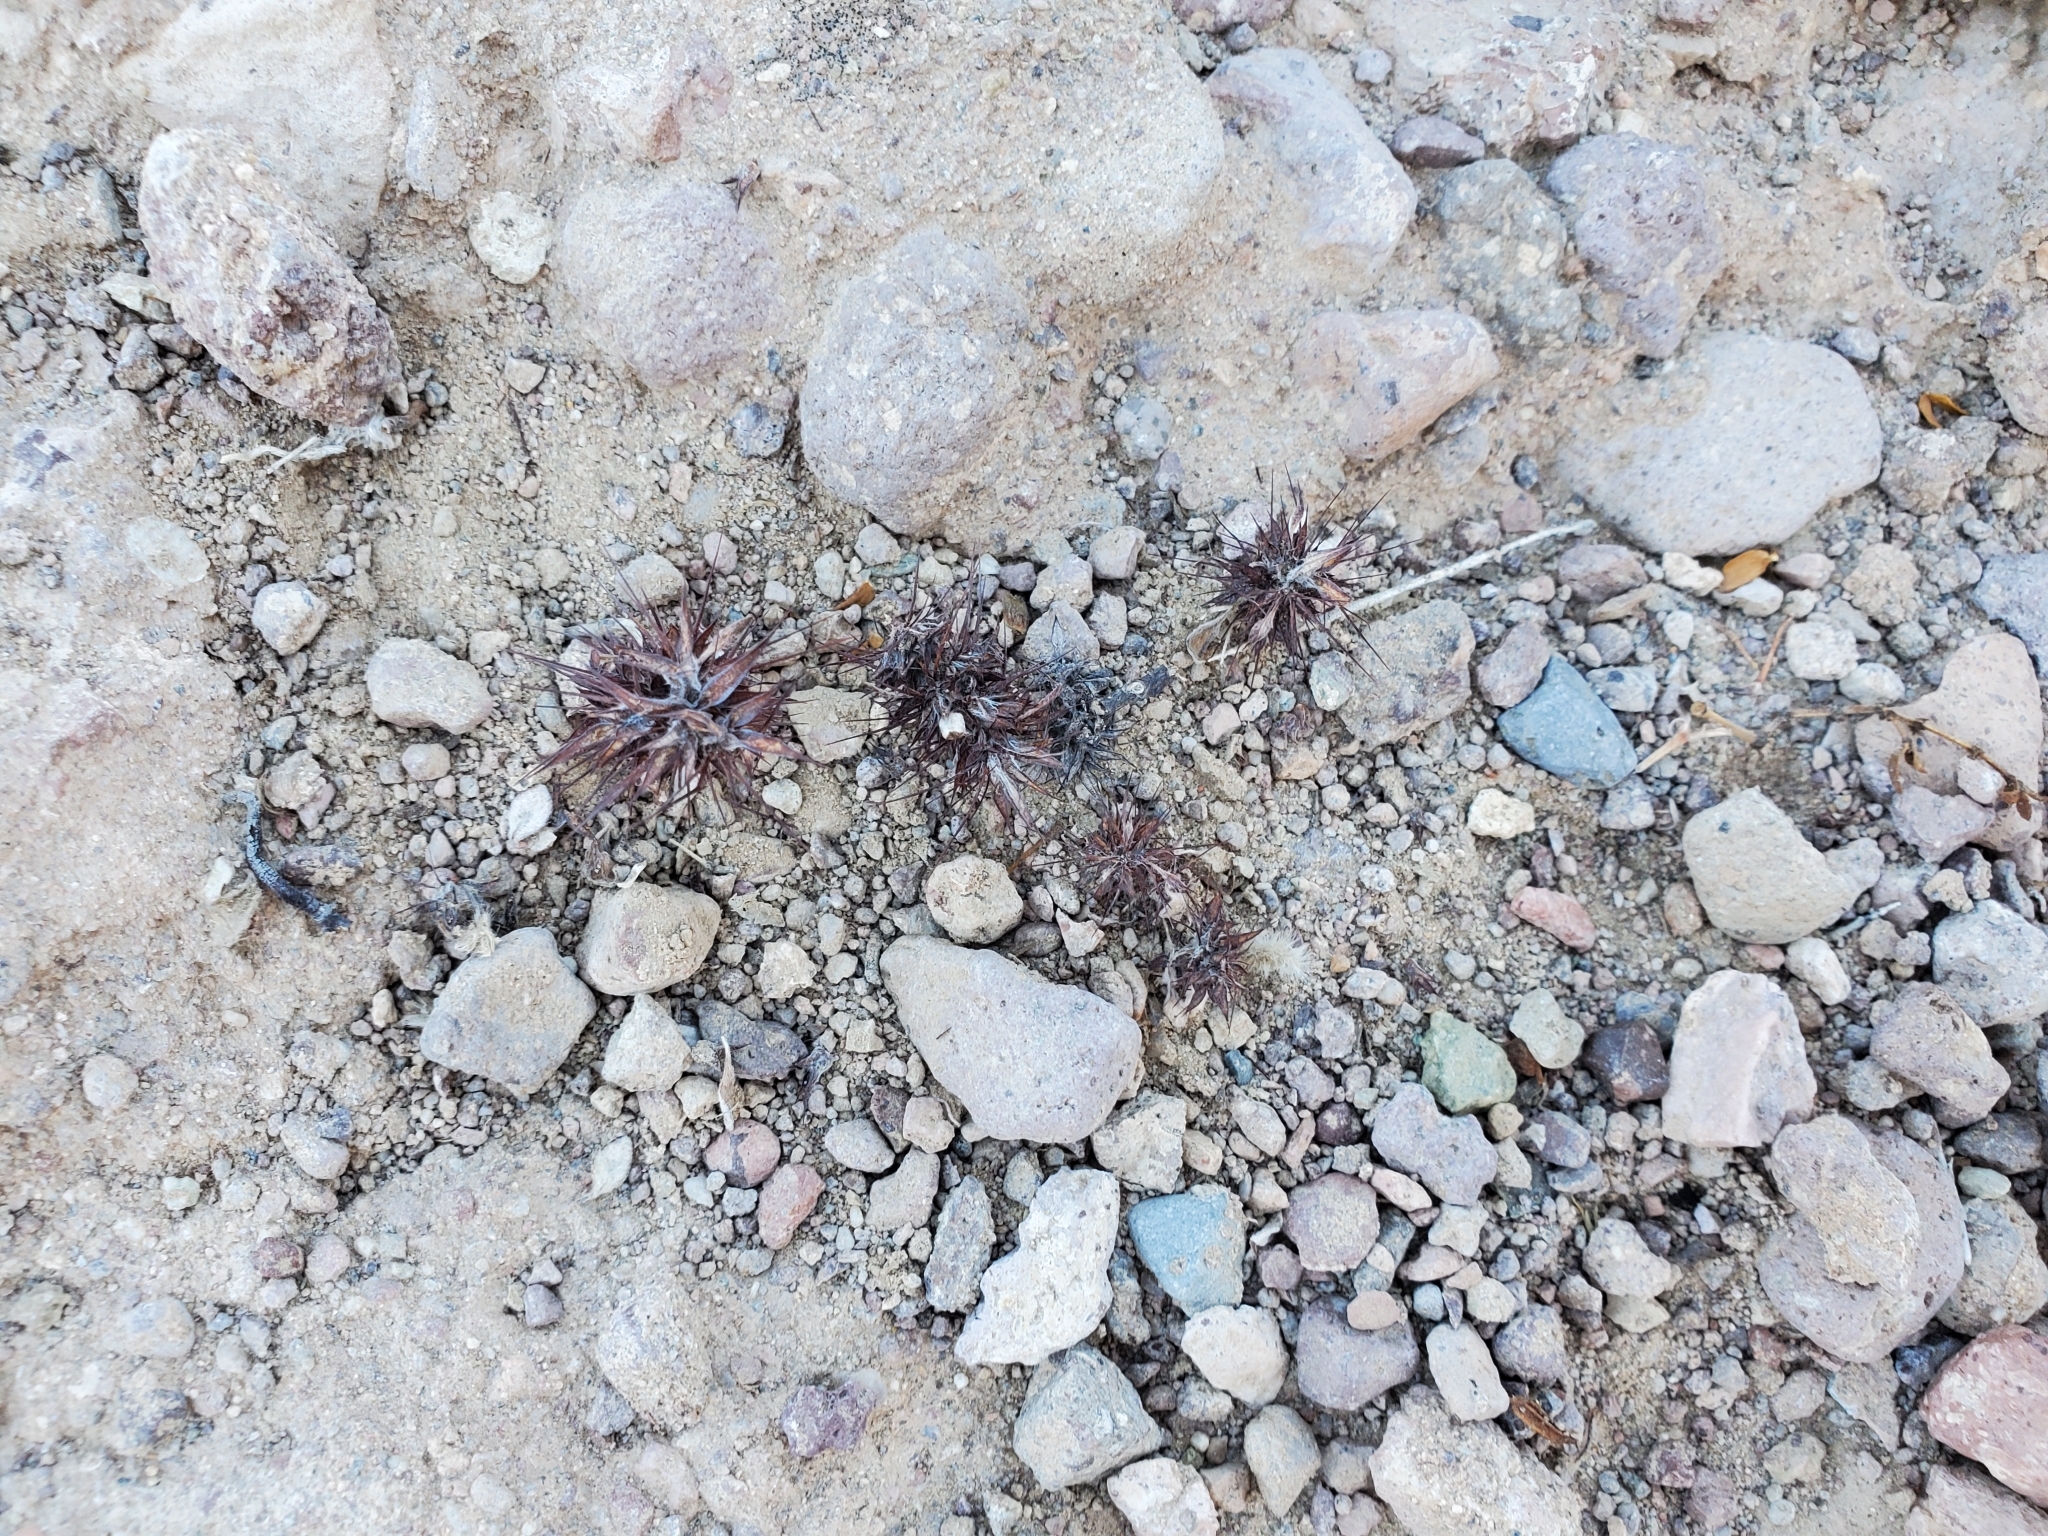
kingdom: Plantae
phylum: Tracheophyta
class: Magnoliopsida
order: Caryophyllales
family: Polygonaceae
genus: Chorizanthe
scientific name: Chorizanthe rigida
